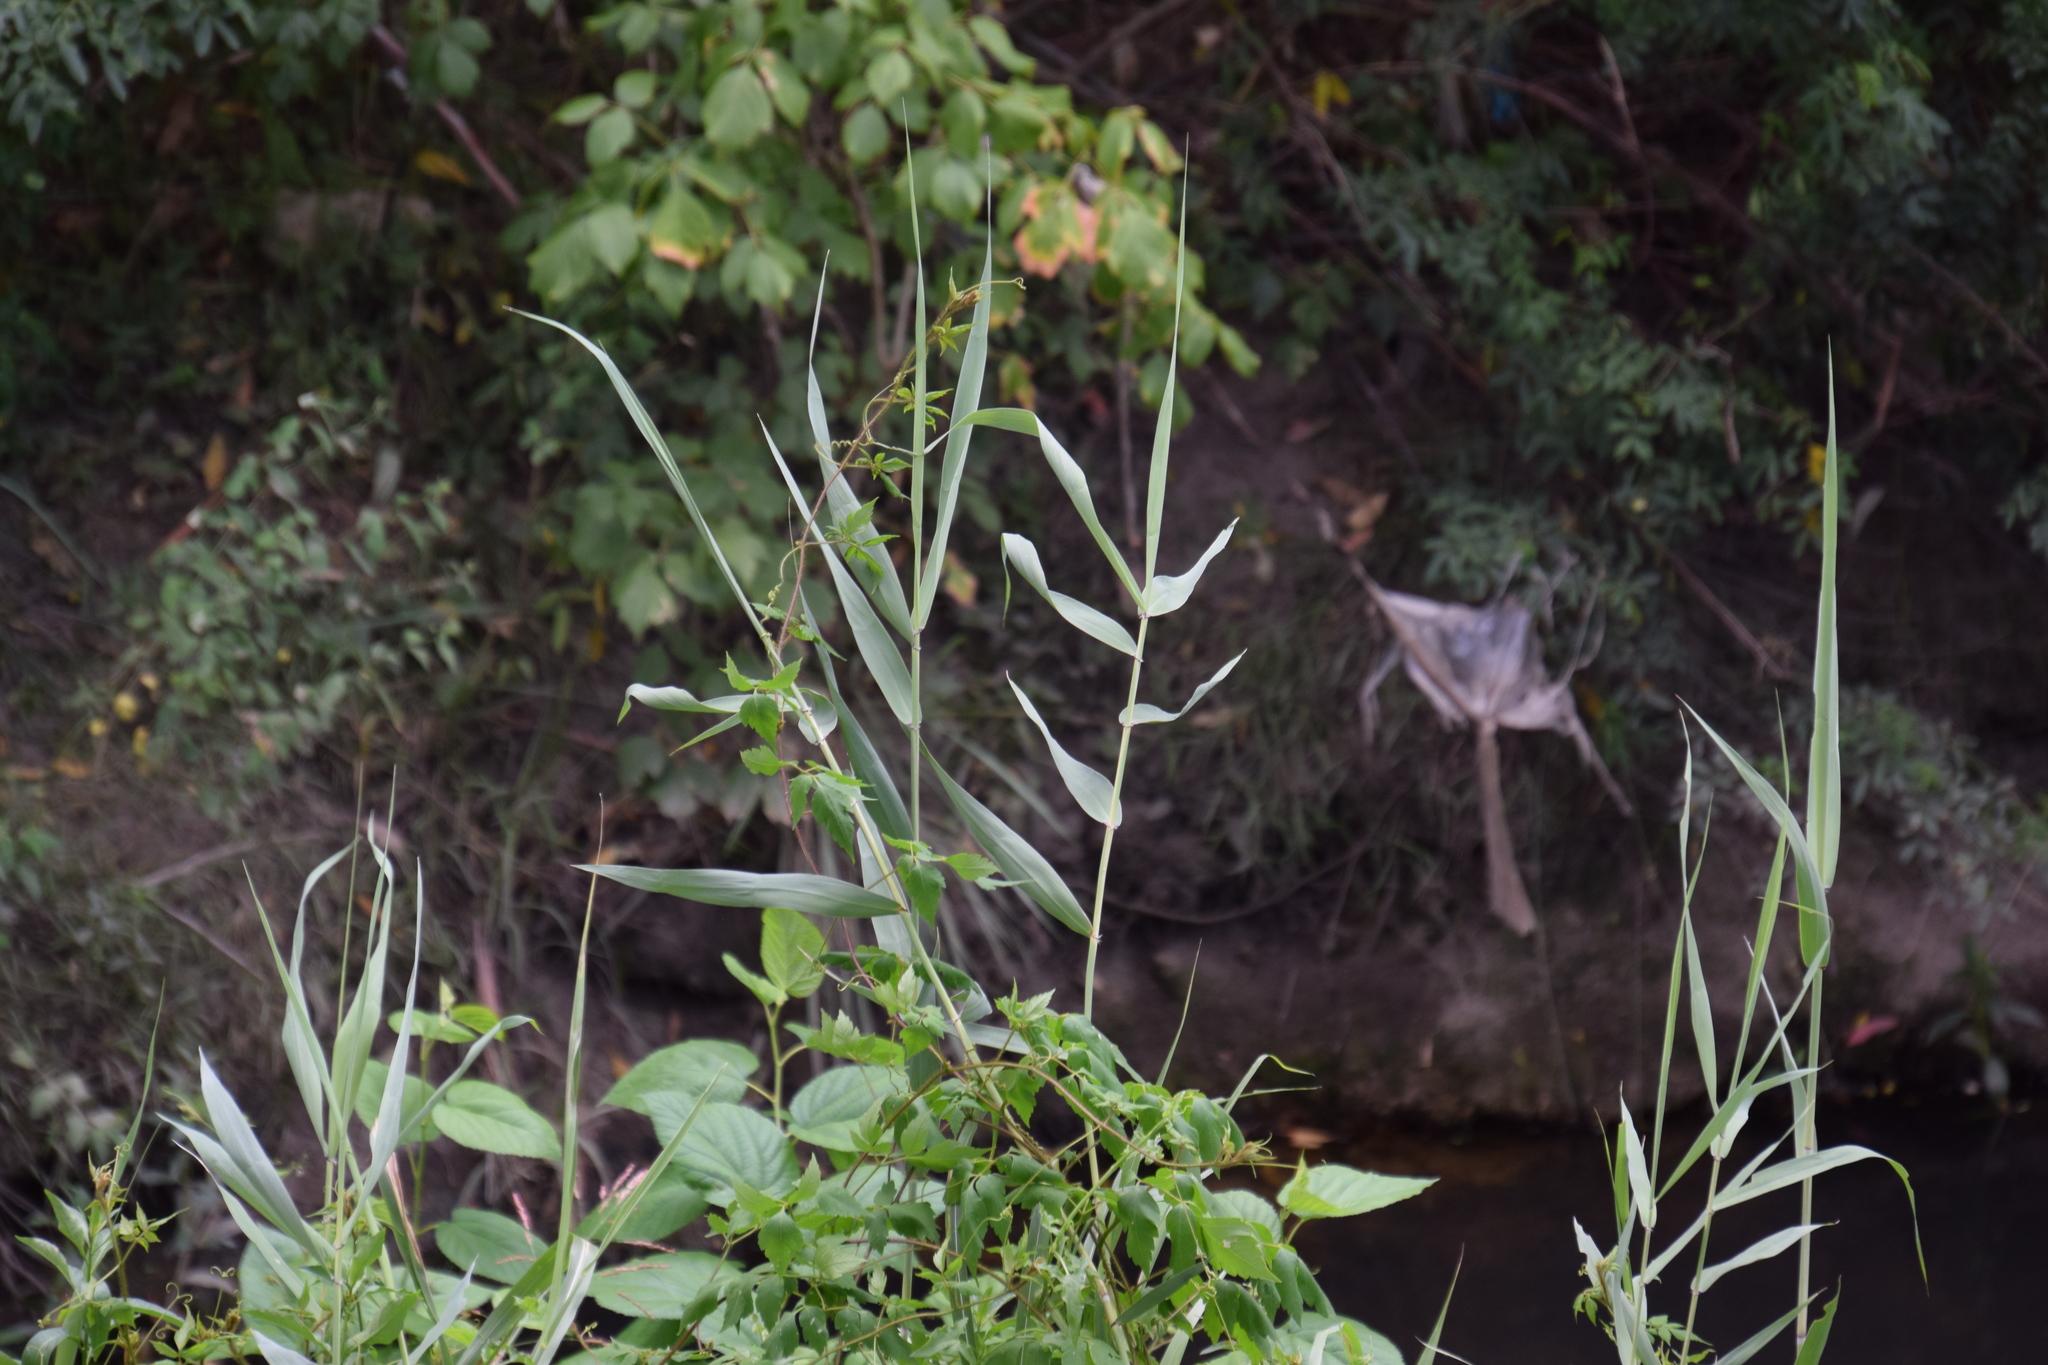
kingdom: Plantae
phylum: Tracheophyta
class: Liliopsida
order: Poales
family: Poaceae
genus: Phragmites
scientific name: Phragmites australis
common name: Common reed
